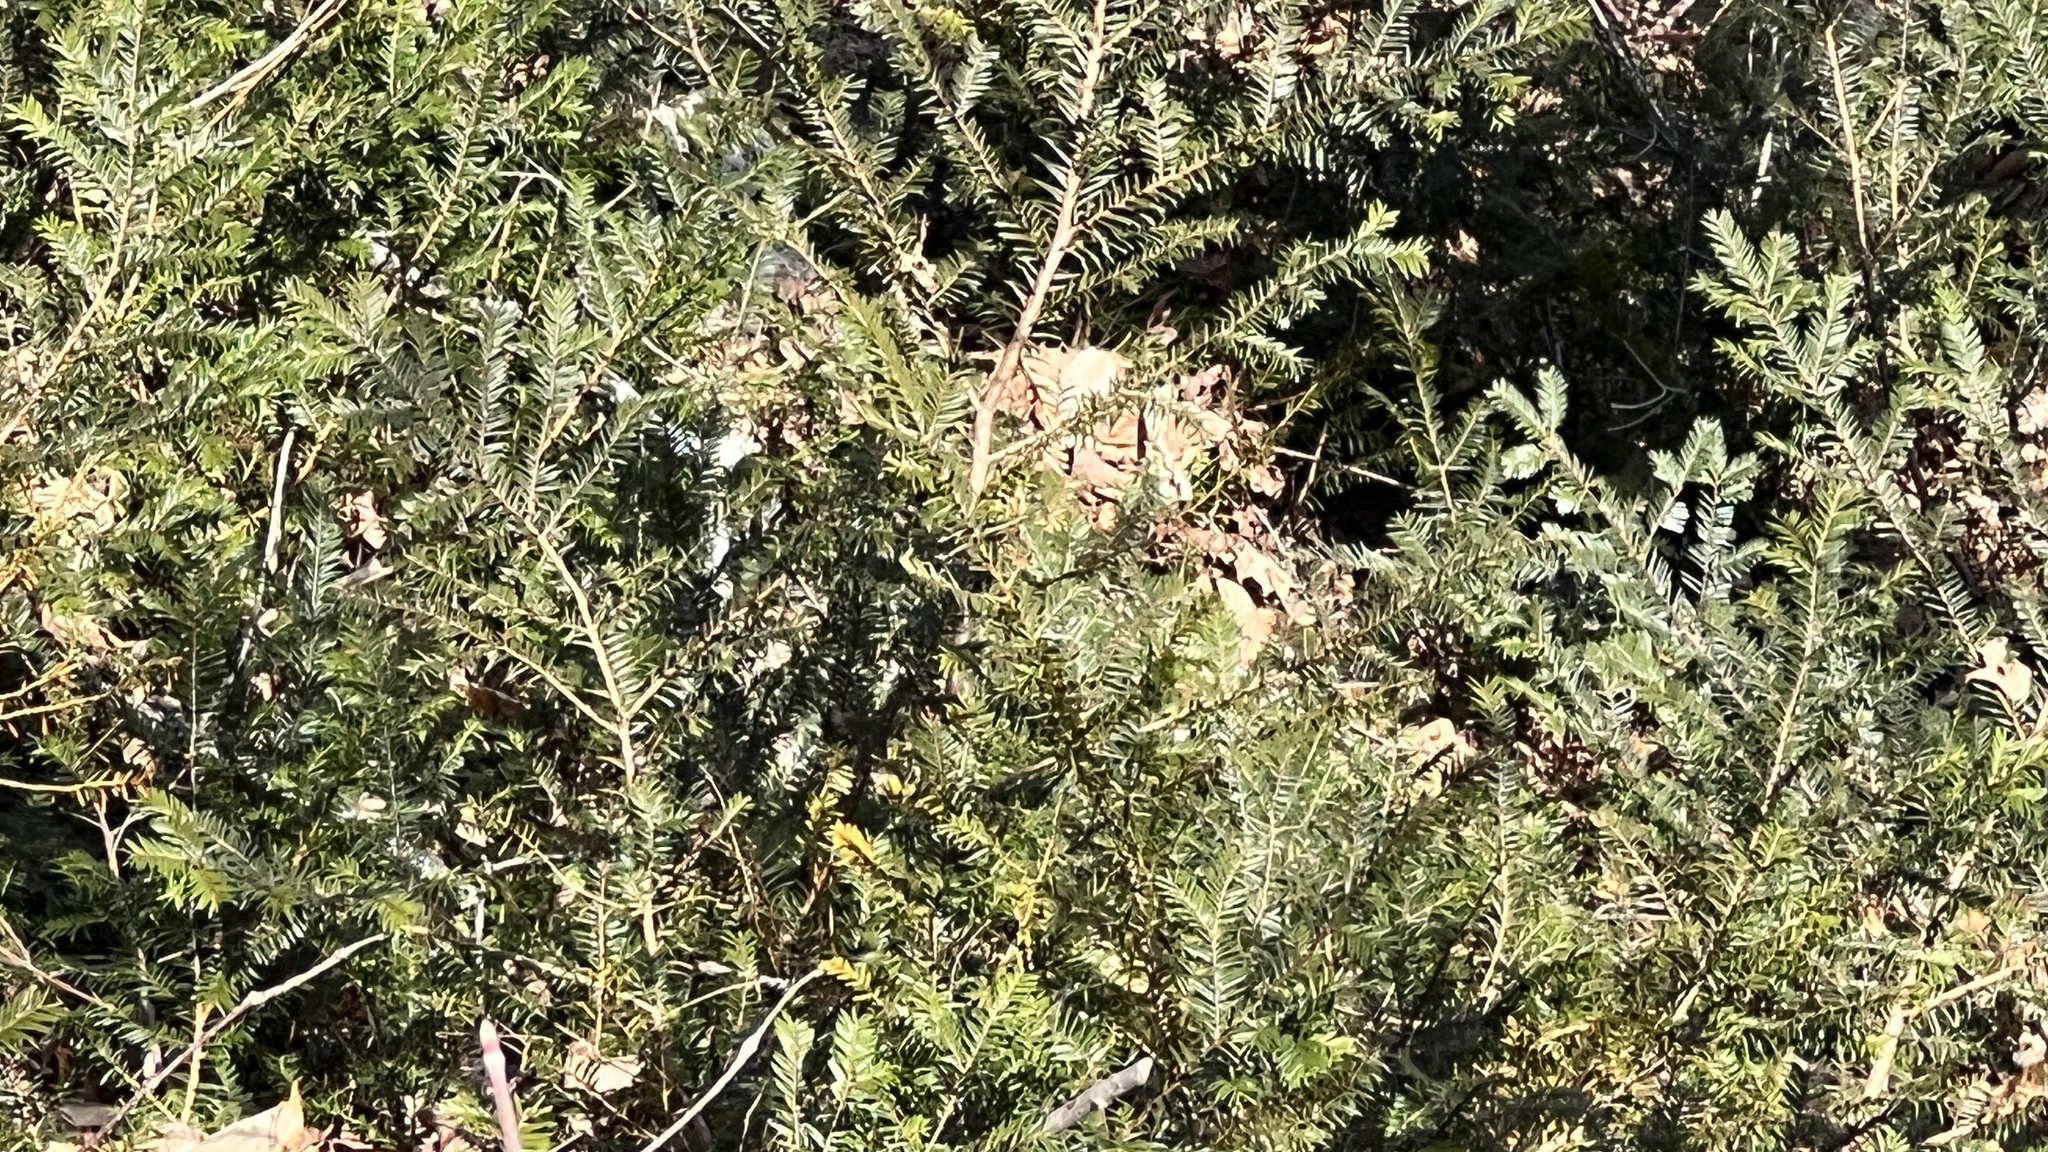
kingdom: Plantae
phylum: Tracheophyta
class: Pinopsida
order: Pinales
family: Taxaceae
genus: Taxus
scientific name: Taxus canadensis
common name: American yew
